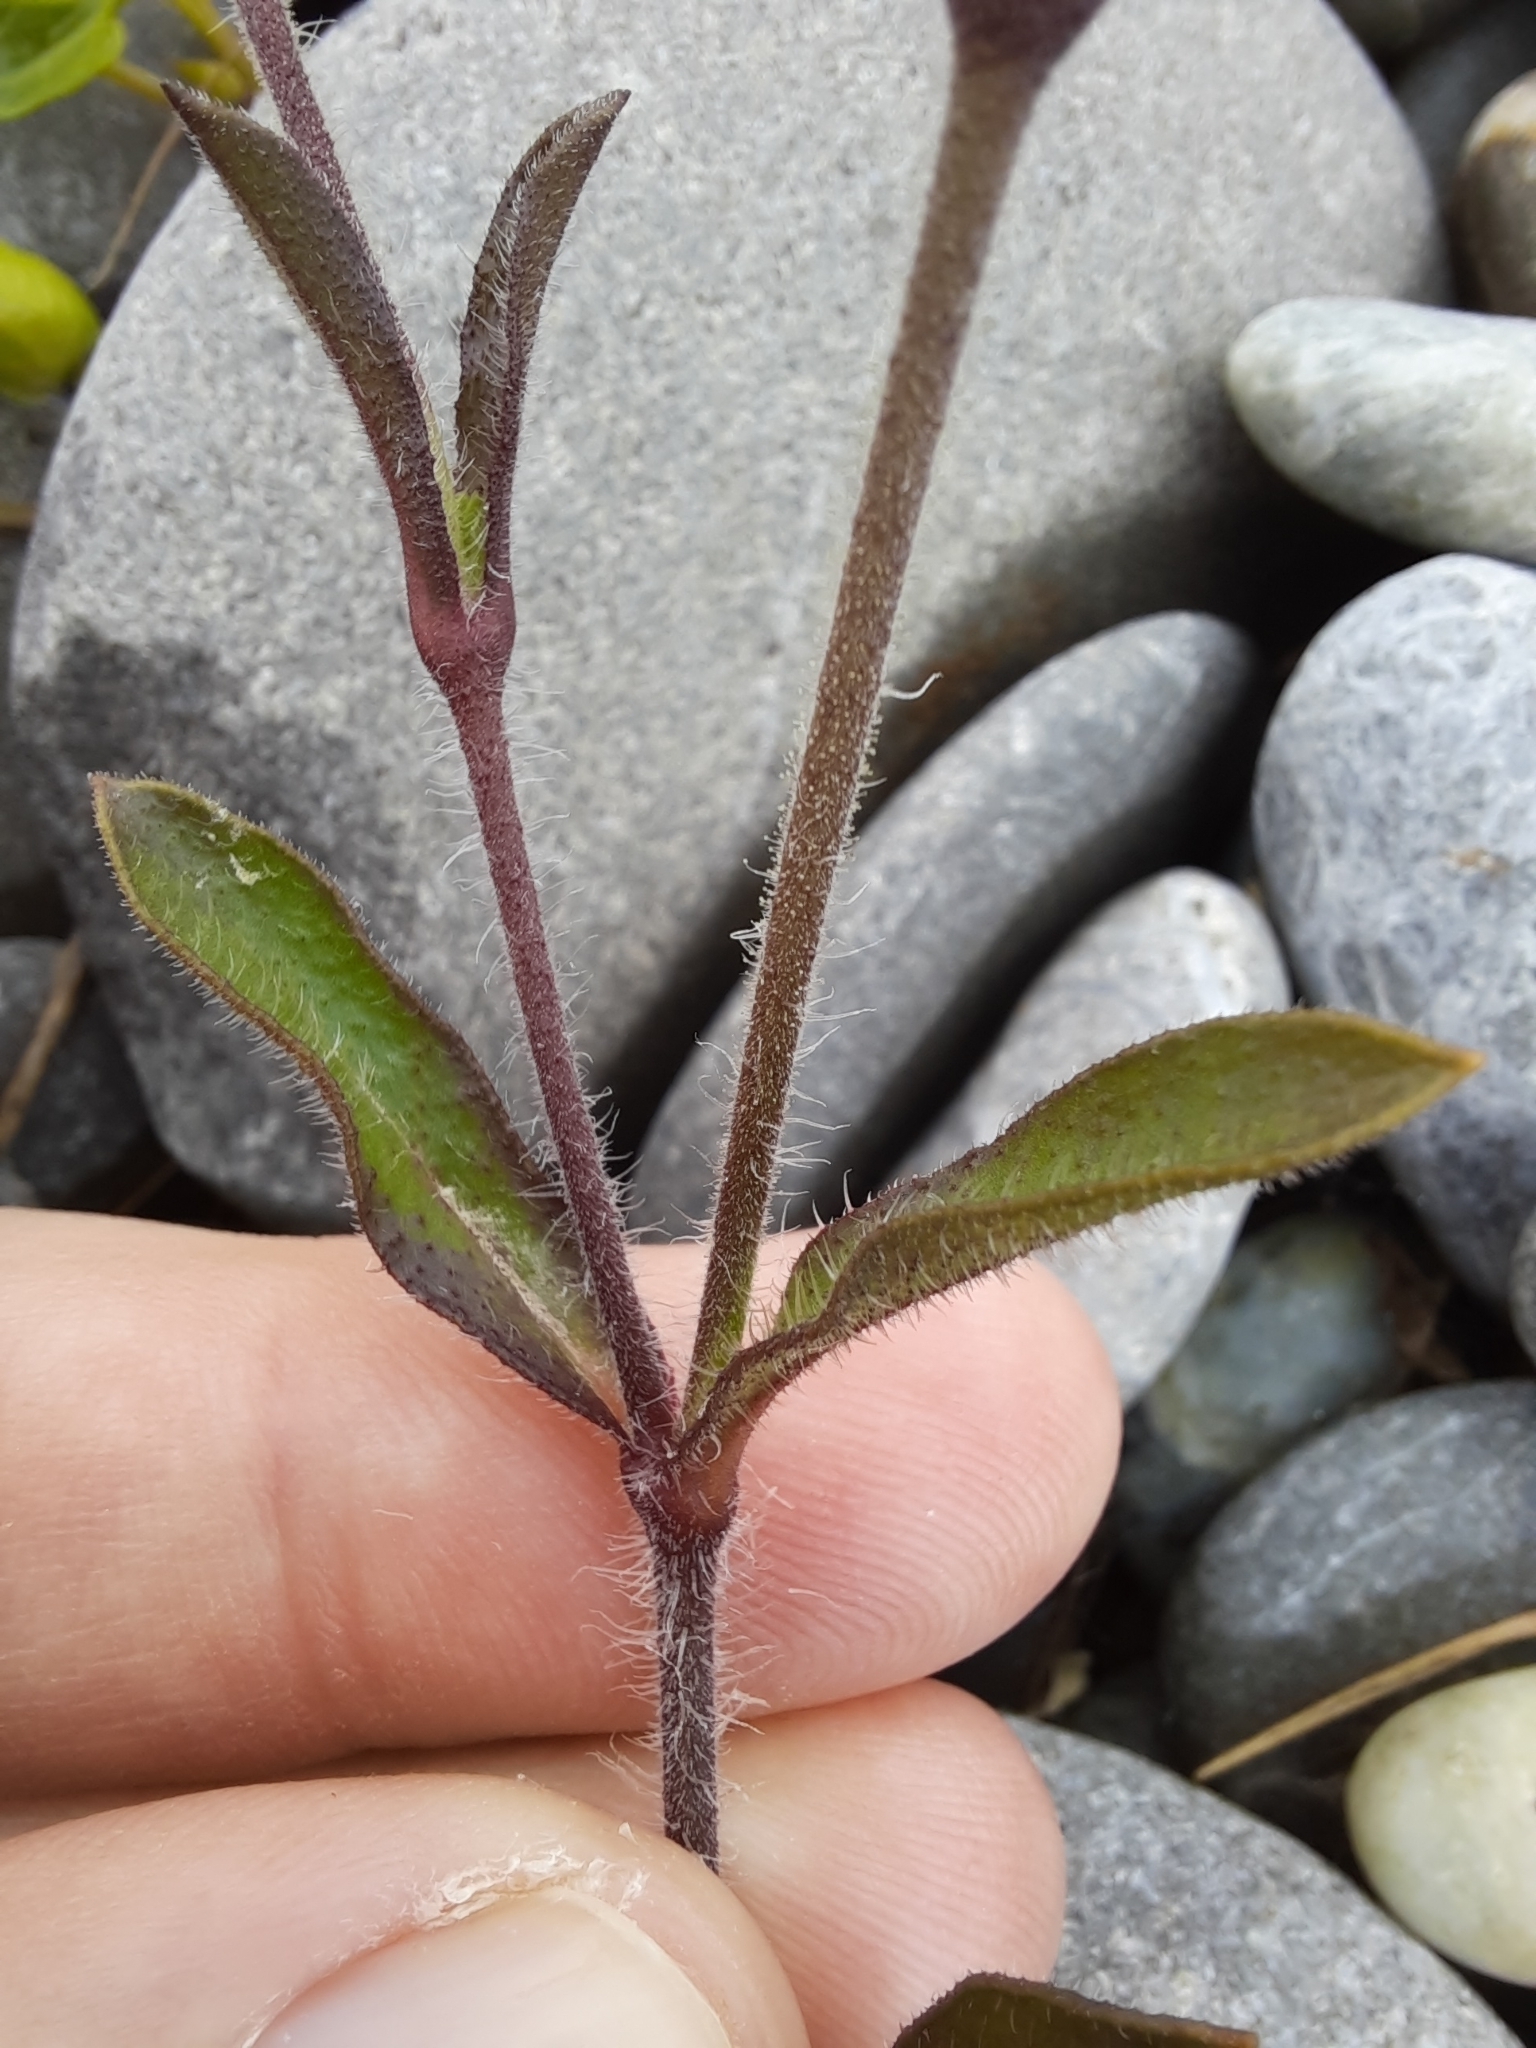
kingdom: Plantae
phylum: Tracheophyta
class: Magnoliopsida
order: Caryophyllales
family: Caryophyllaceae
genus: Silene
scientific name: Silene gallica
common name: Small-flowered catchfly
